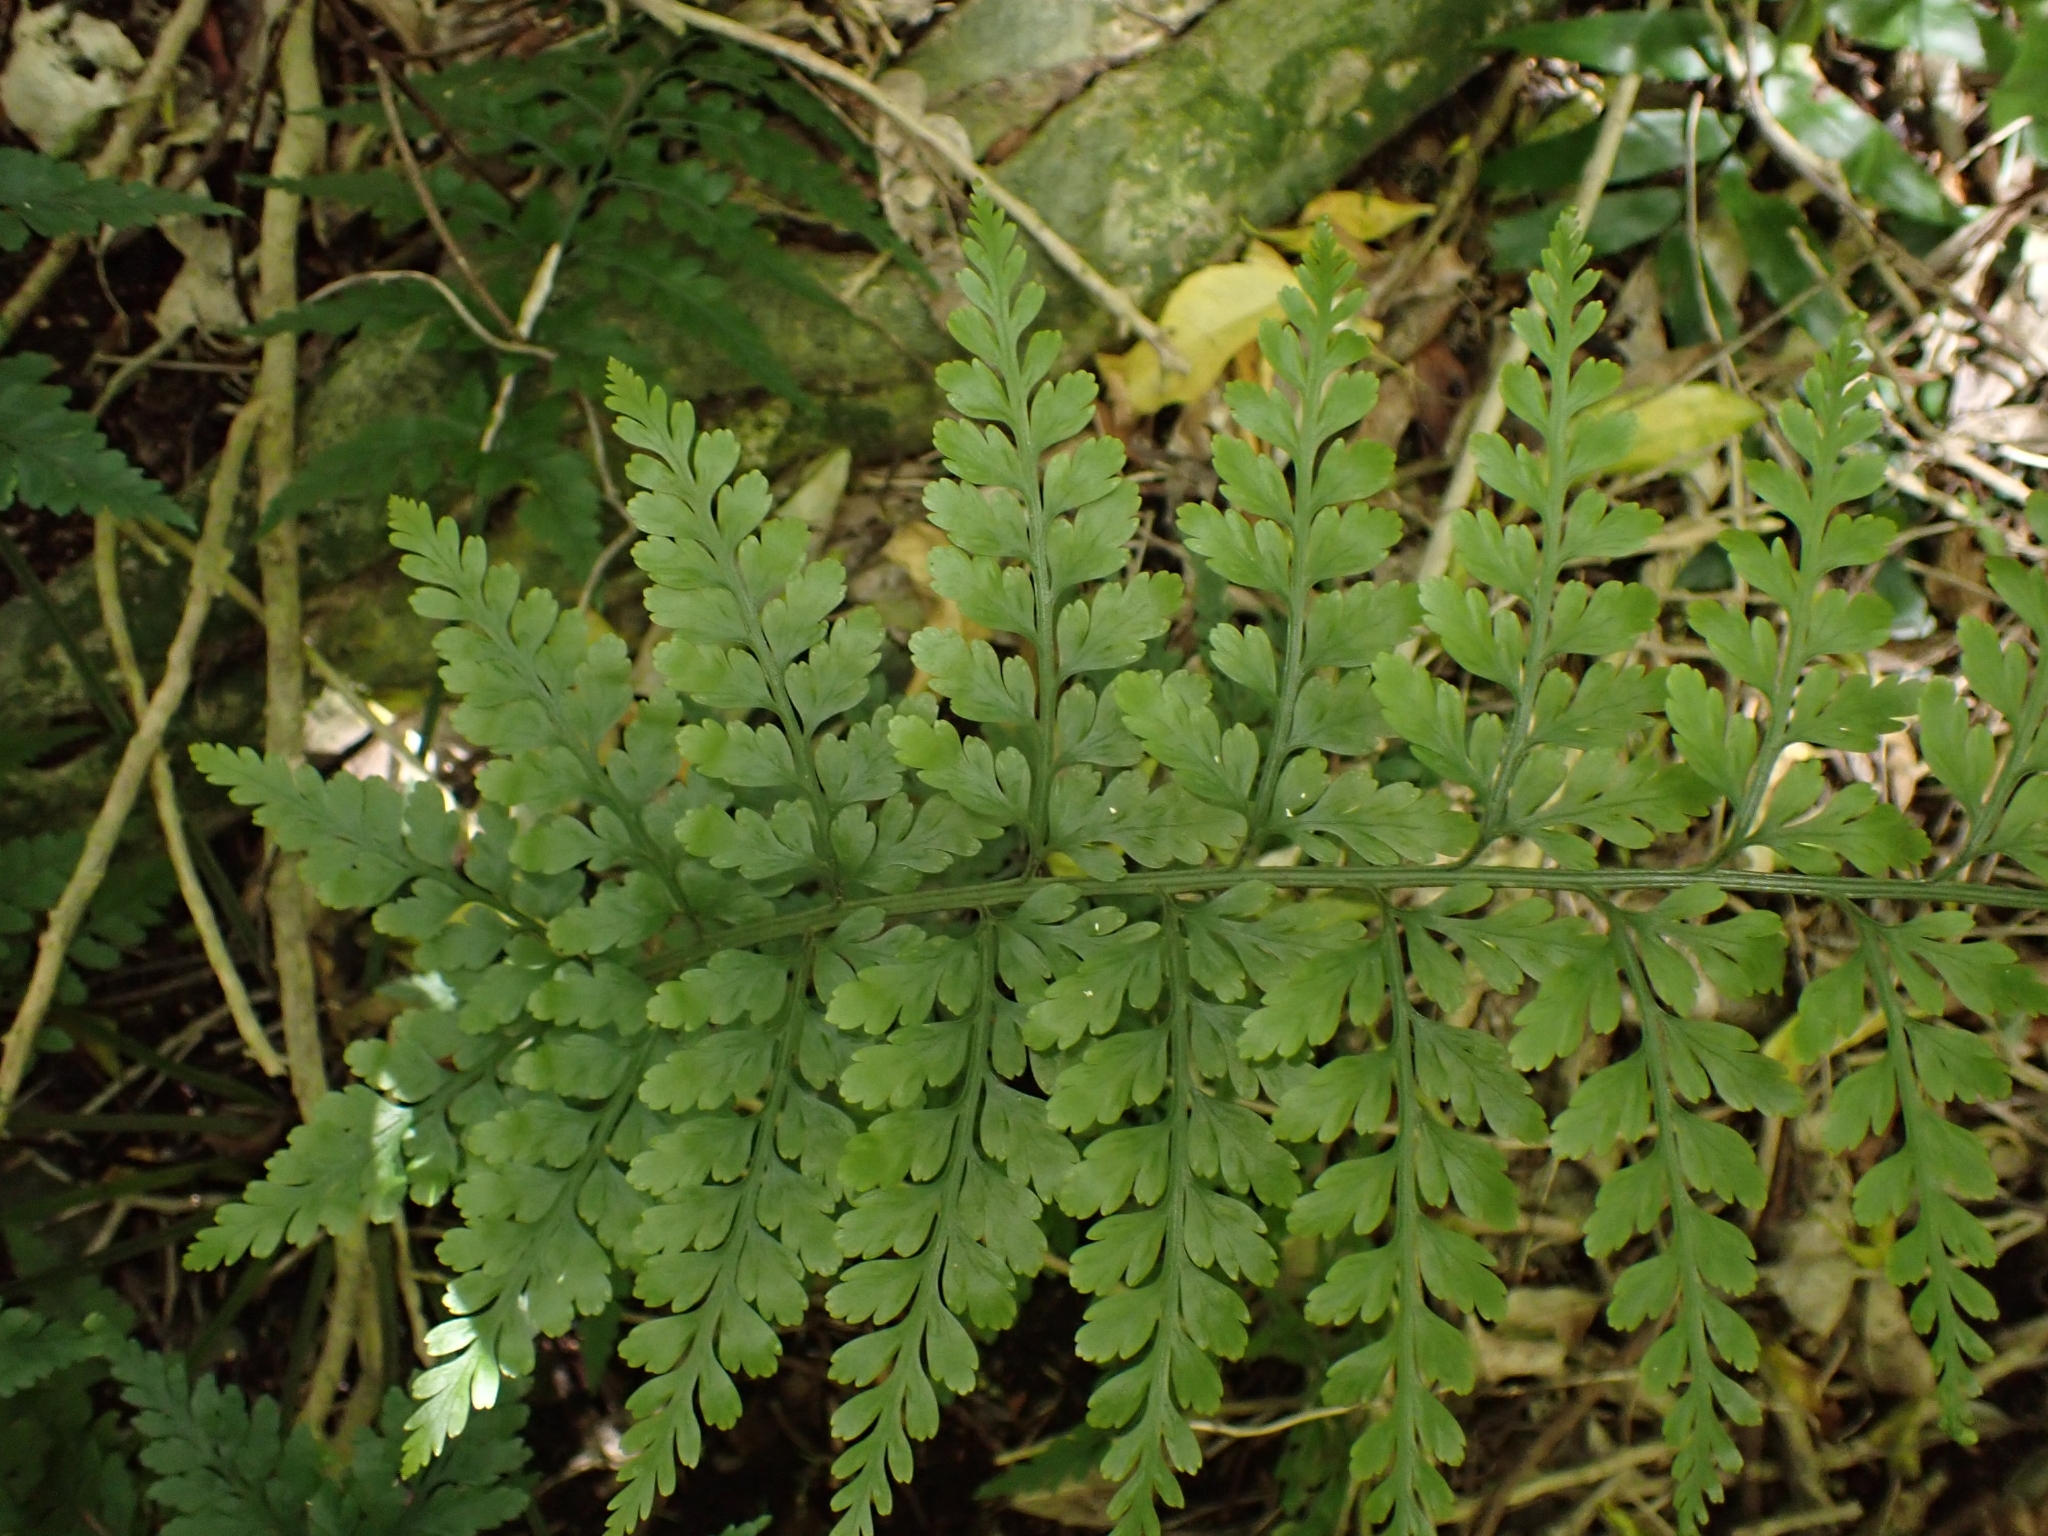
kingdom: Plantae
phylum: Tracheophyta
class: Polypodiopsida
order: Polypodiales
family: Aspleniaceae
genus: Asplenium
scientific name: Asplenium
